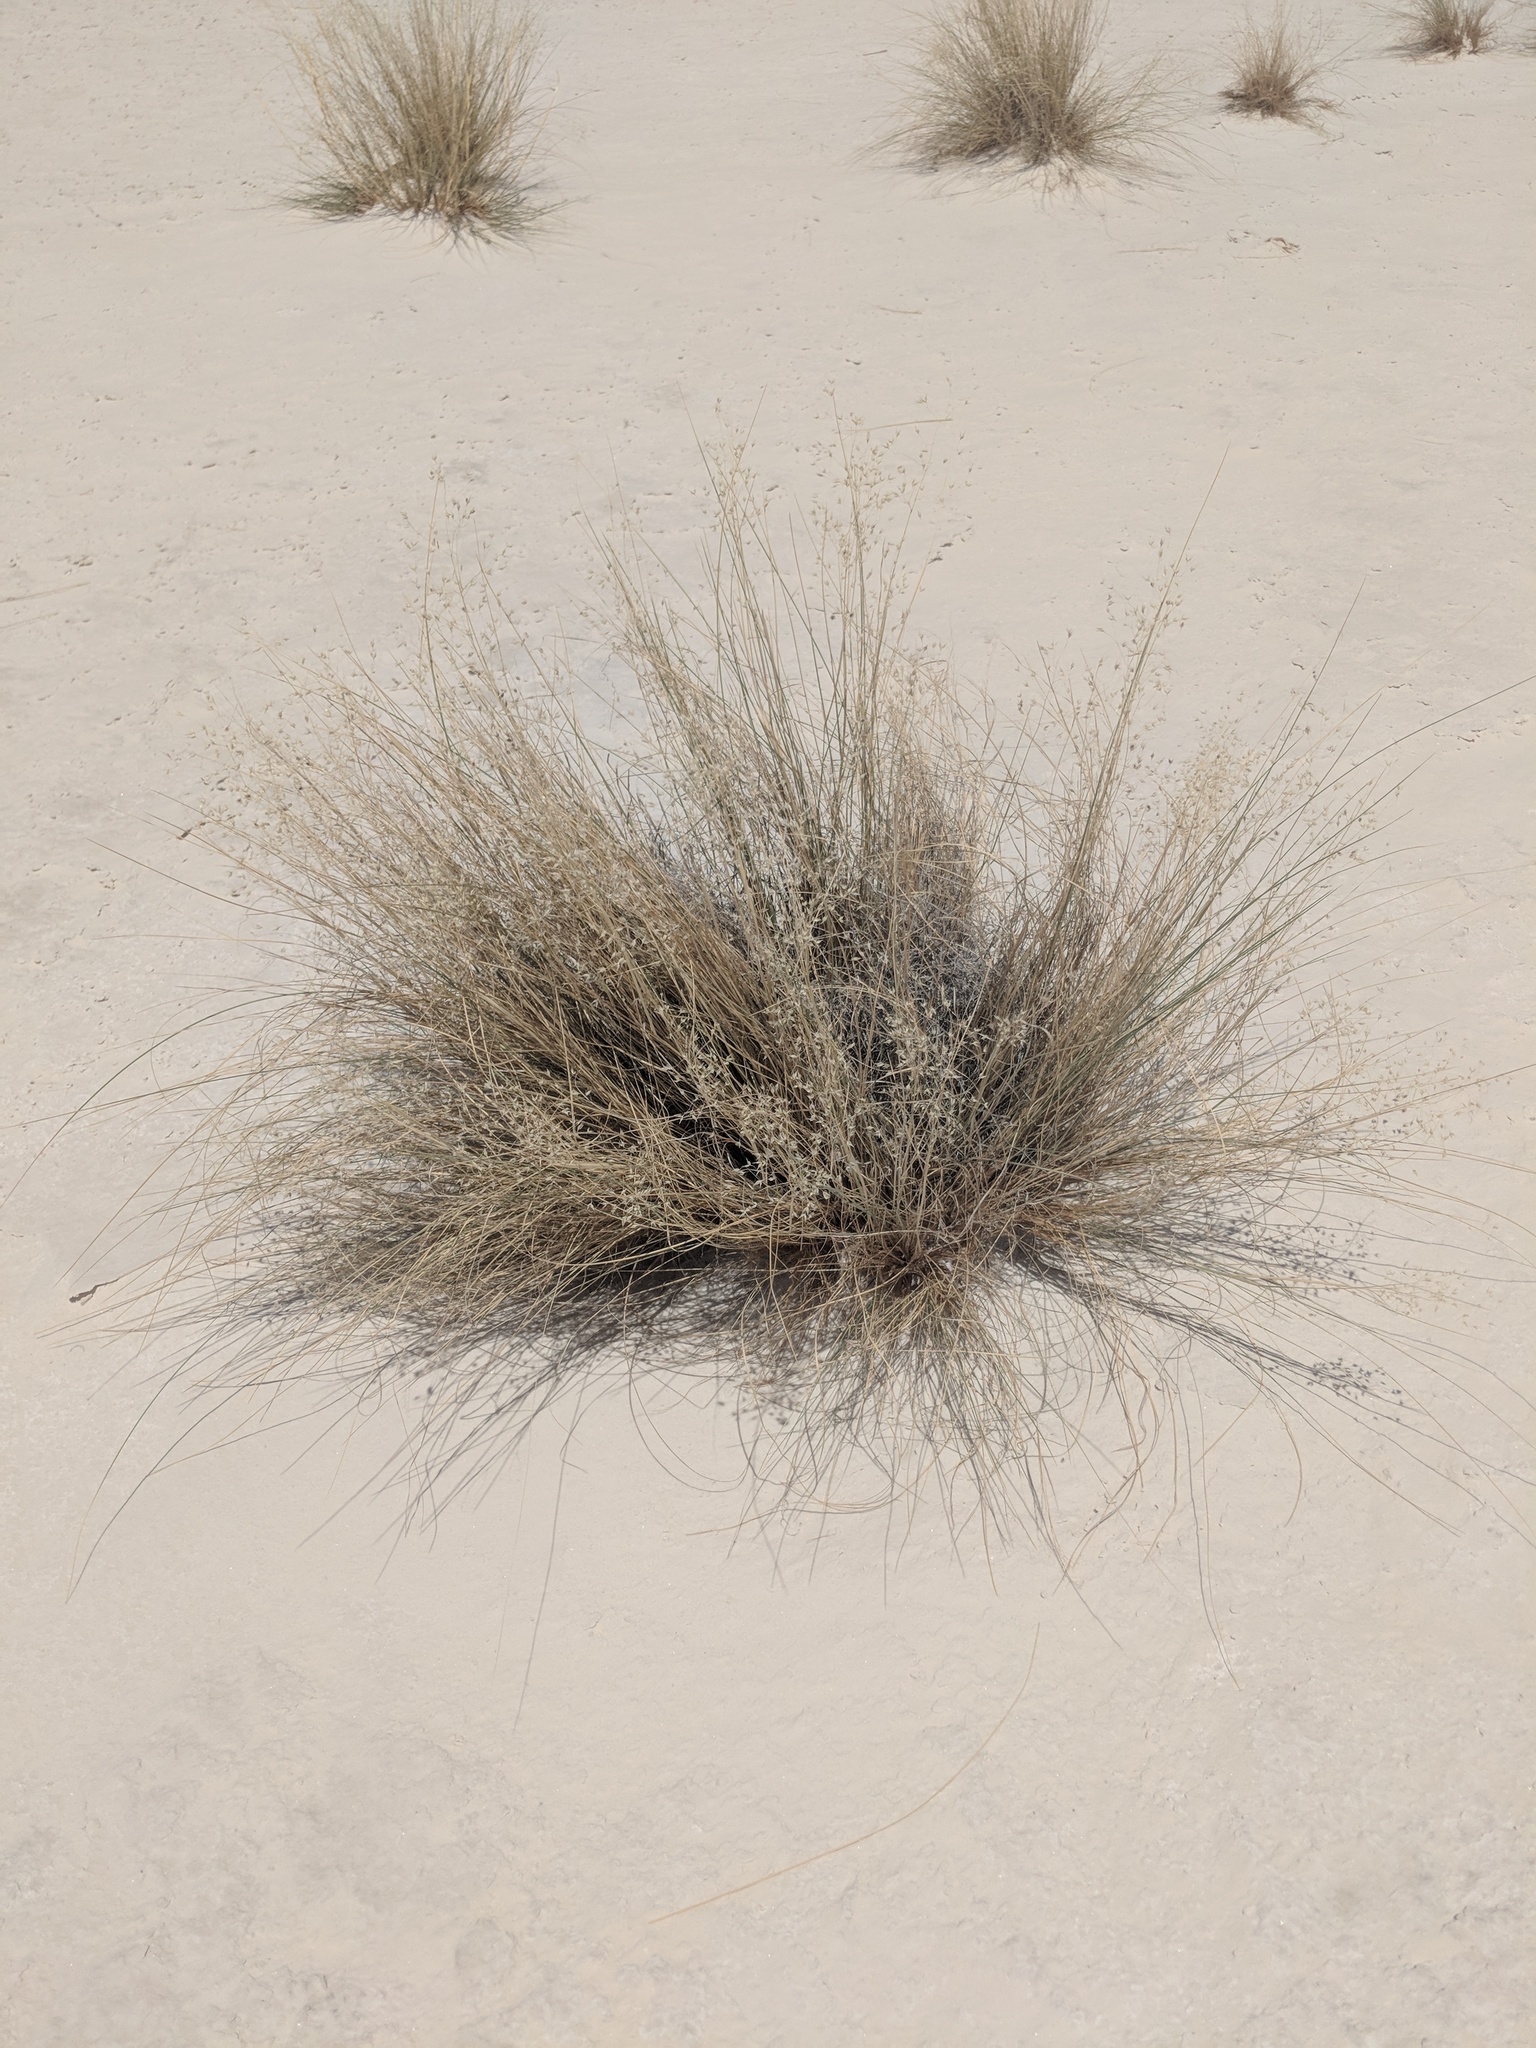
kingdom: Plantae
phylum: Tracheophyta
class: Liliopsida
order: Poales
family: Poaceae
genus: Eriocoma
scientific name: Eriocoma hymenoides
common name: Indian mountain ricegrass
